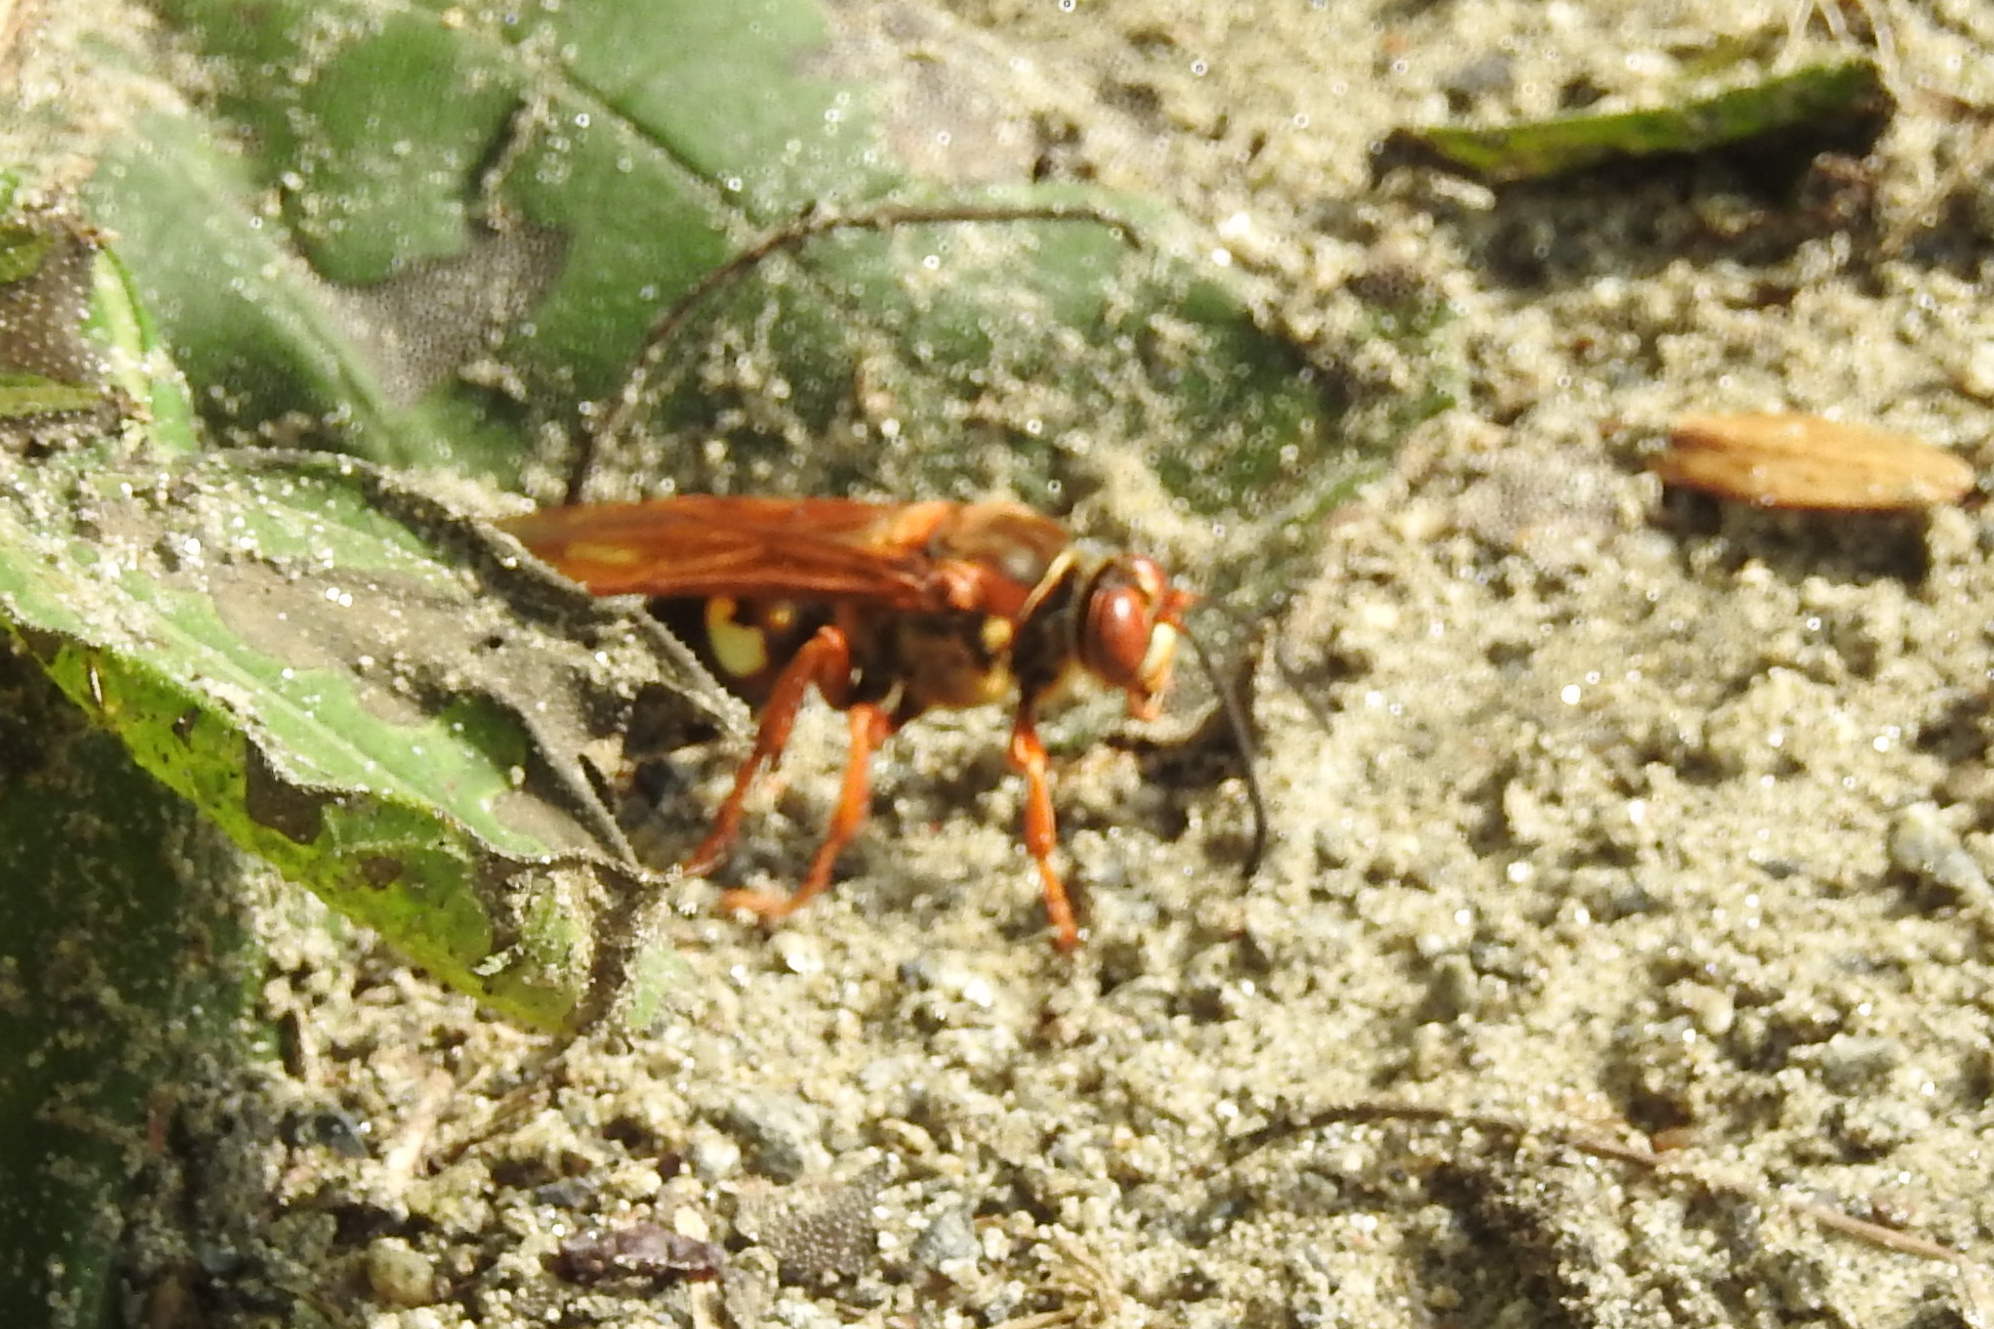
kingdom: Animalia
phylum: Arthropoda
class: Insecta
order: Hymenoptera
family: Crabronidae
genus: Sphecius
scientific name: Sphecius speciosus
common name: Cicada killer
